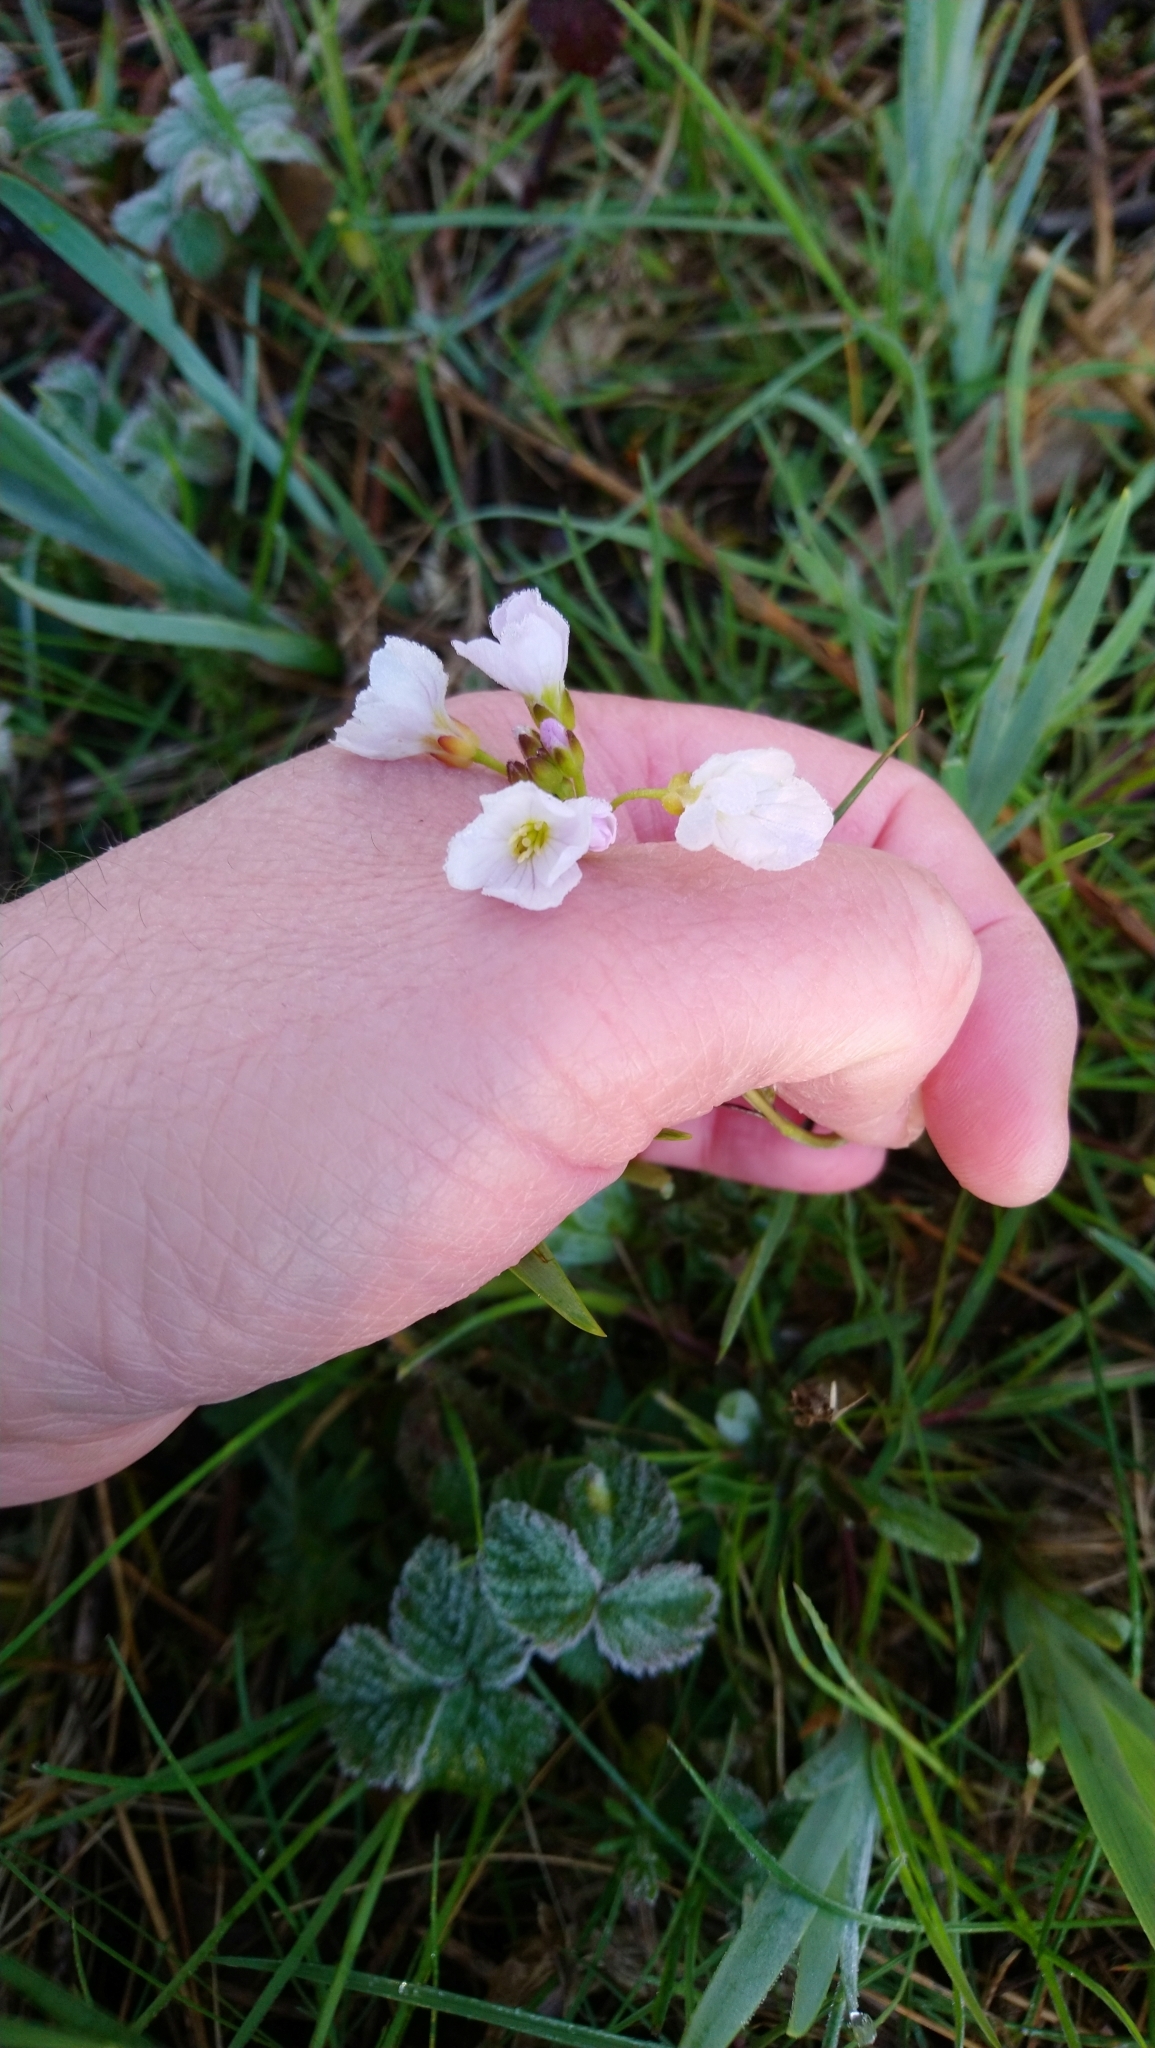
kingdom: Plantae
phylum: Tracheophyta
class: Magnoliopsida
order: Brassicales
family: Brassicaceae
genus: Cardamine
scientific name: Cardamine pratensis
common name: Cuckoo flower
